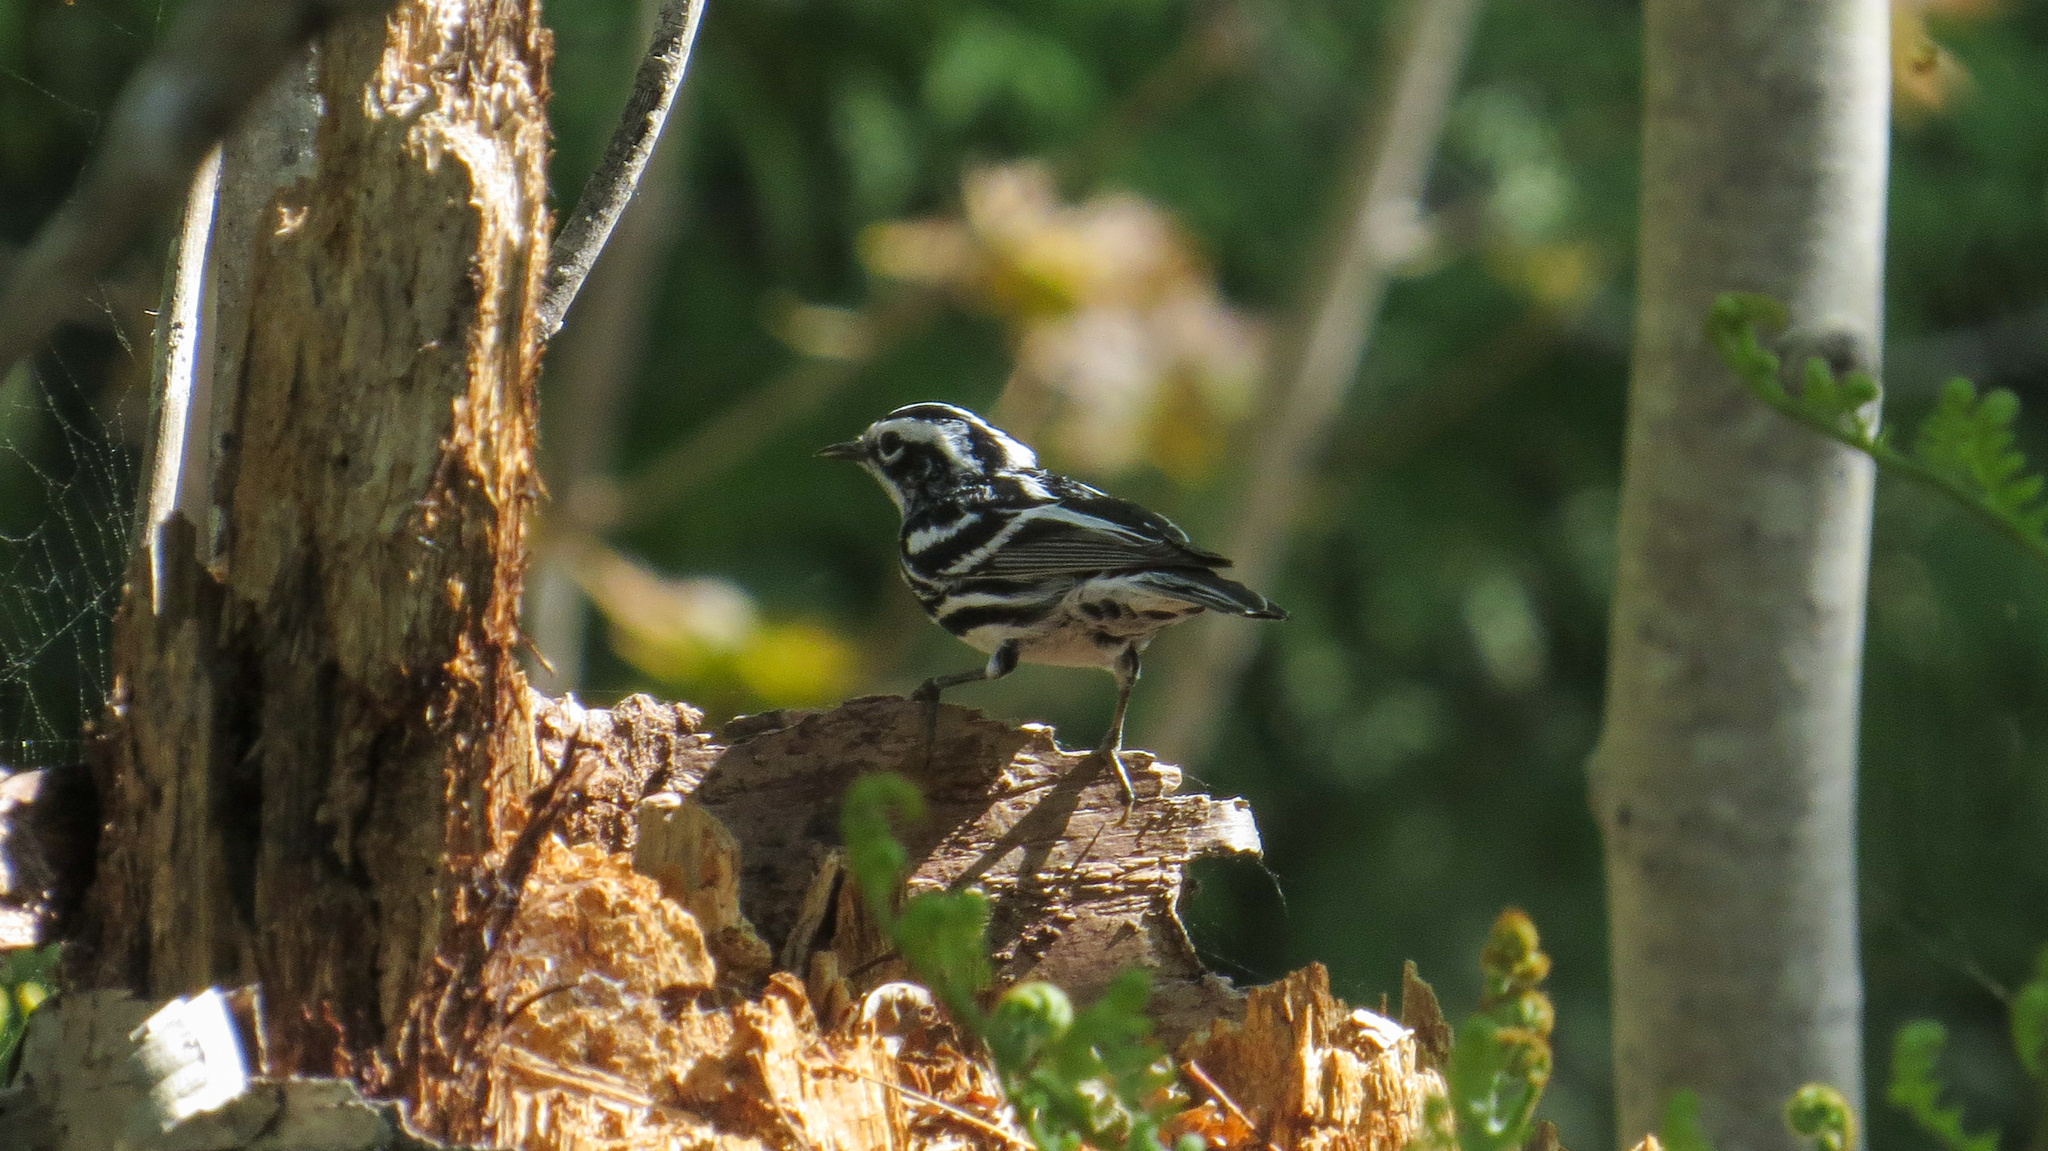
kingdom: Animalia
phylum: Chordata
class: Aves
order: Passeriformes
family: Parulidae
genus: Mniotilta
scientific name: Mniotilta varia
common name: Black-and-white warbler
